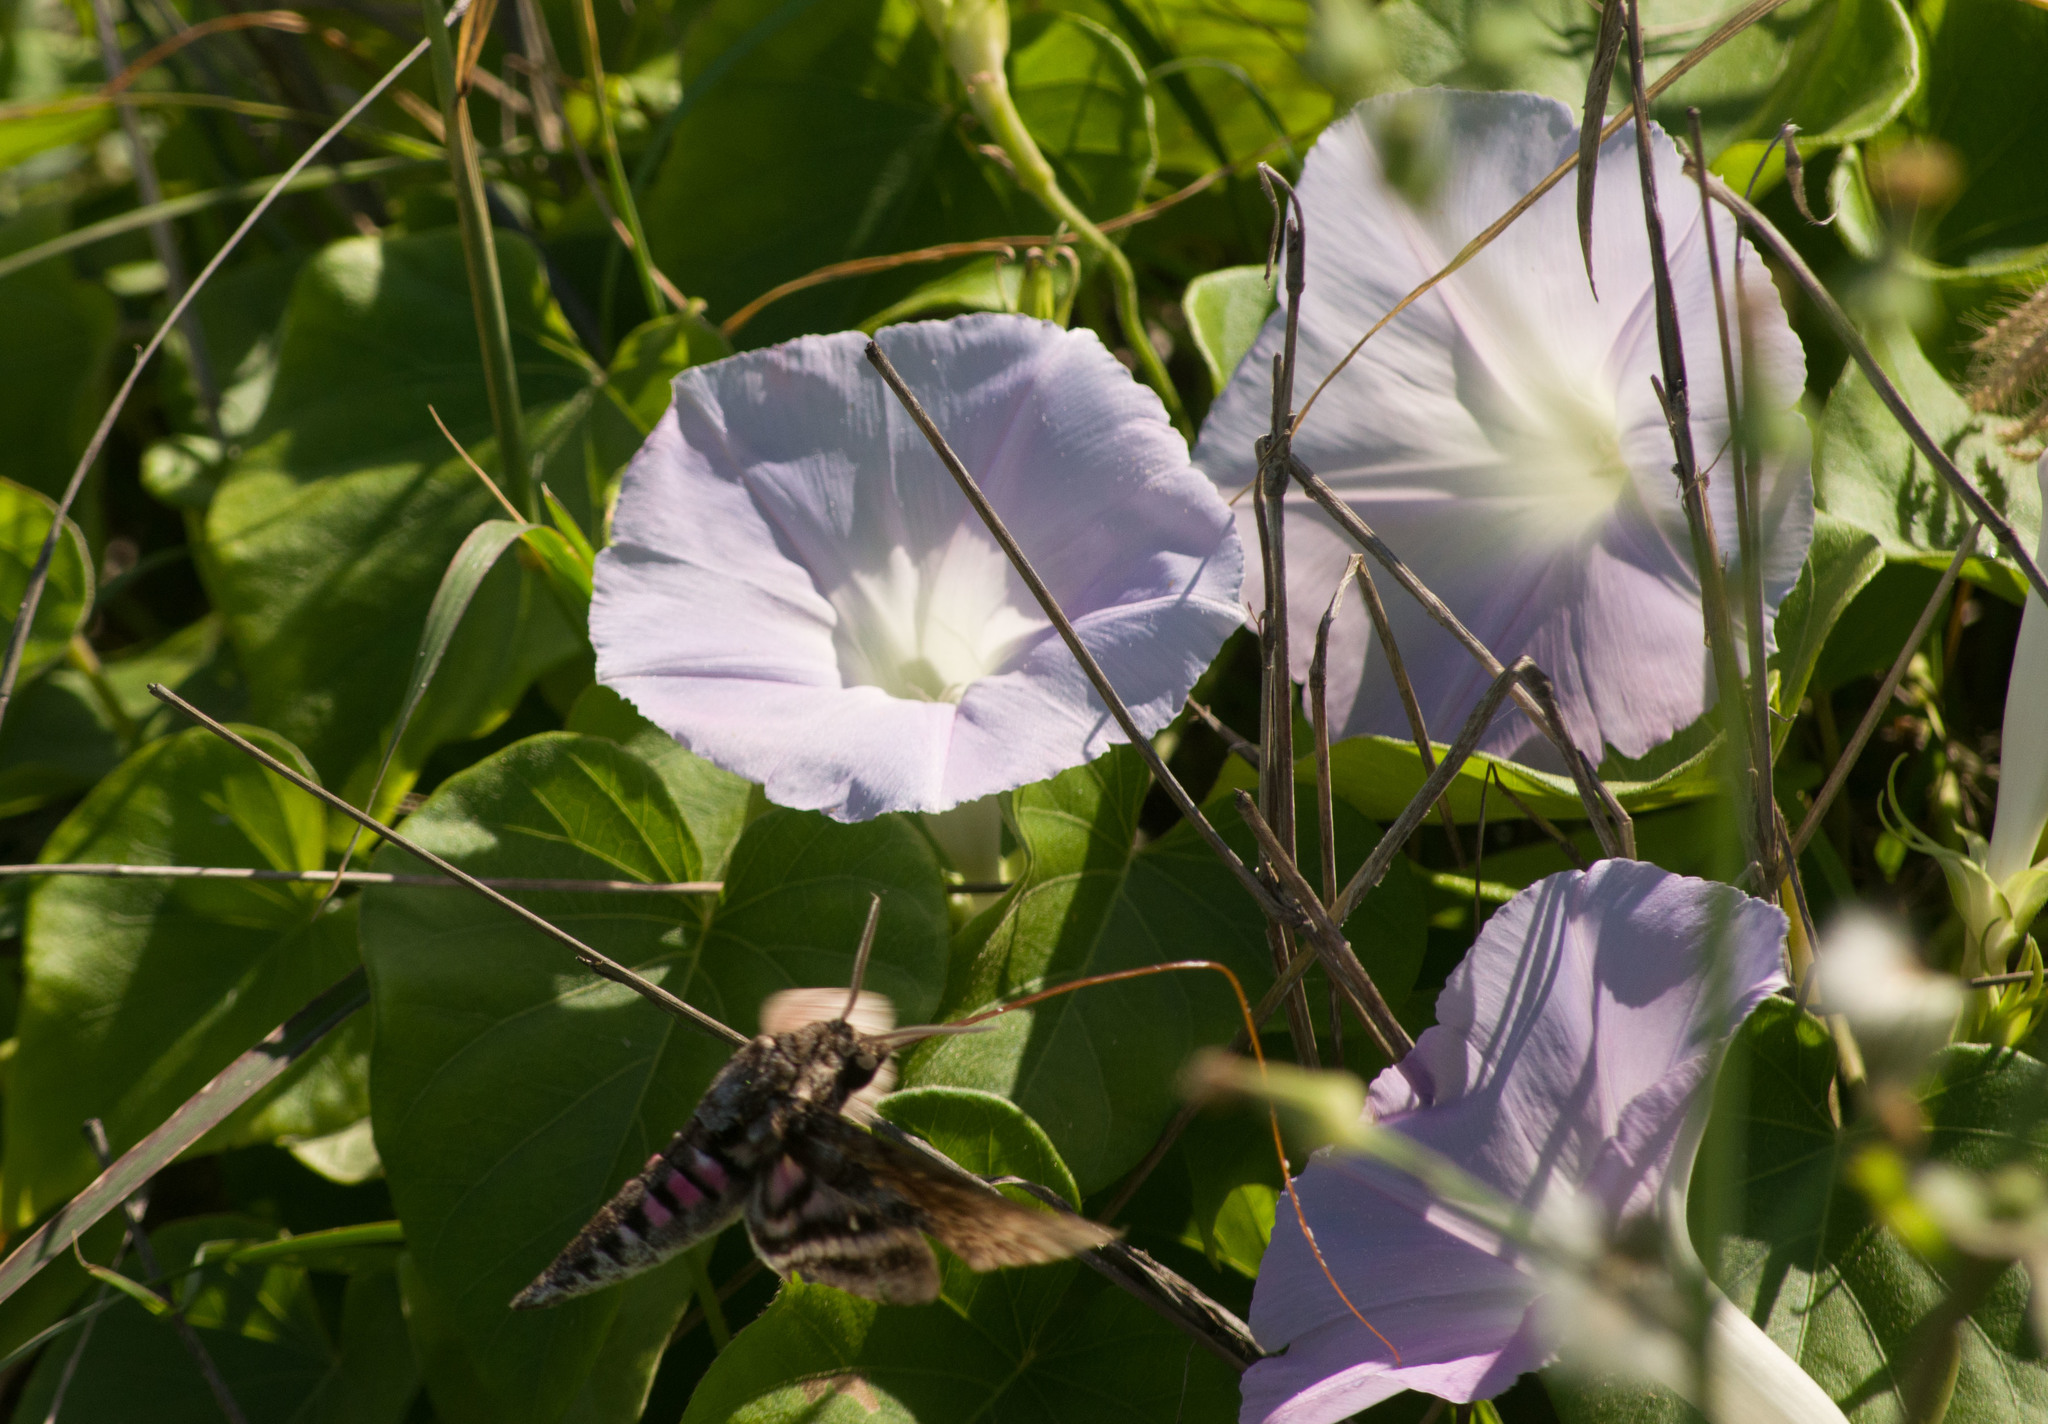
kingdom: Animalia
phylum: Arthropoda
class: Insecta
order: Lepidoptera
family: Sphingidae
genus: Agrius
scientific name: Agrius cingulata
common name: Pink-spotted hawkmoth
